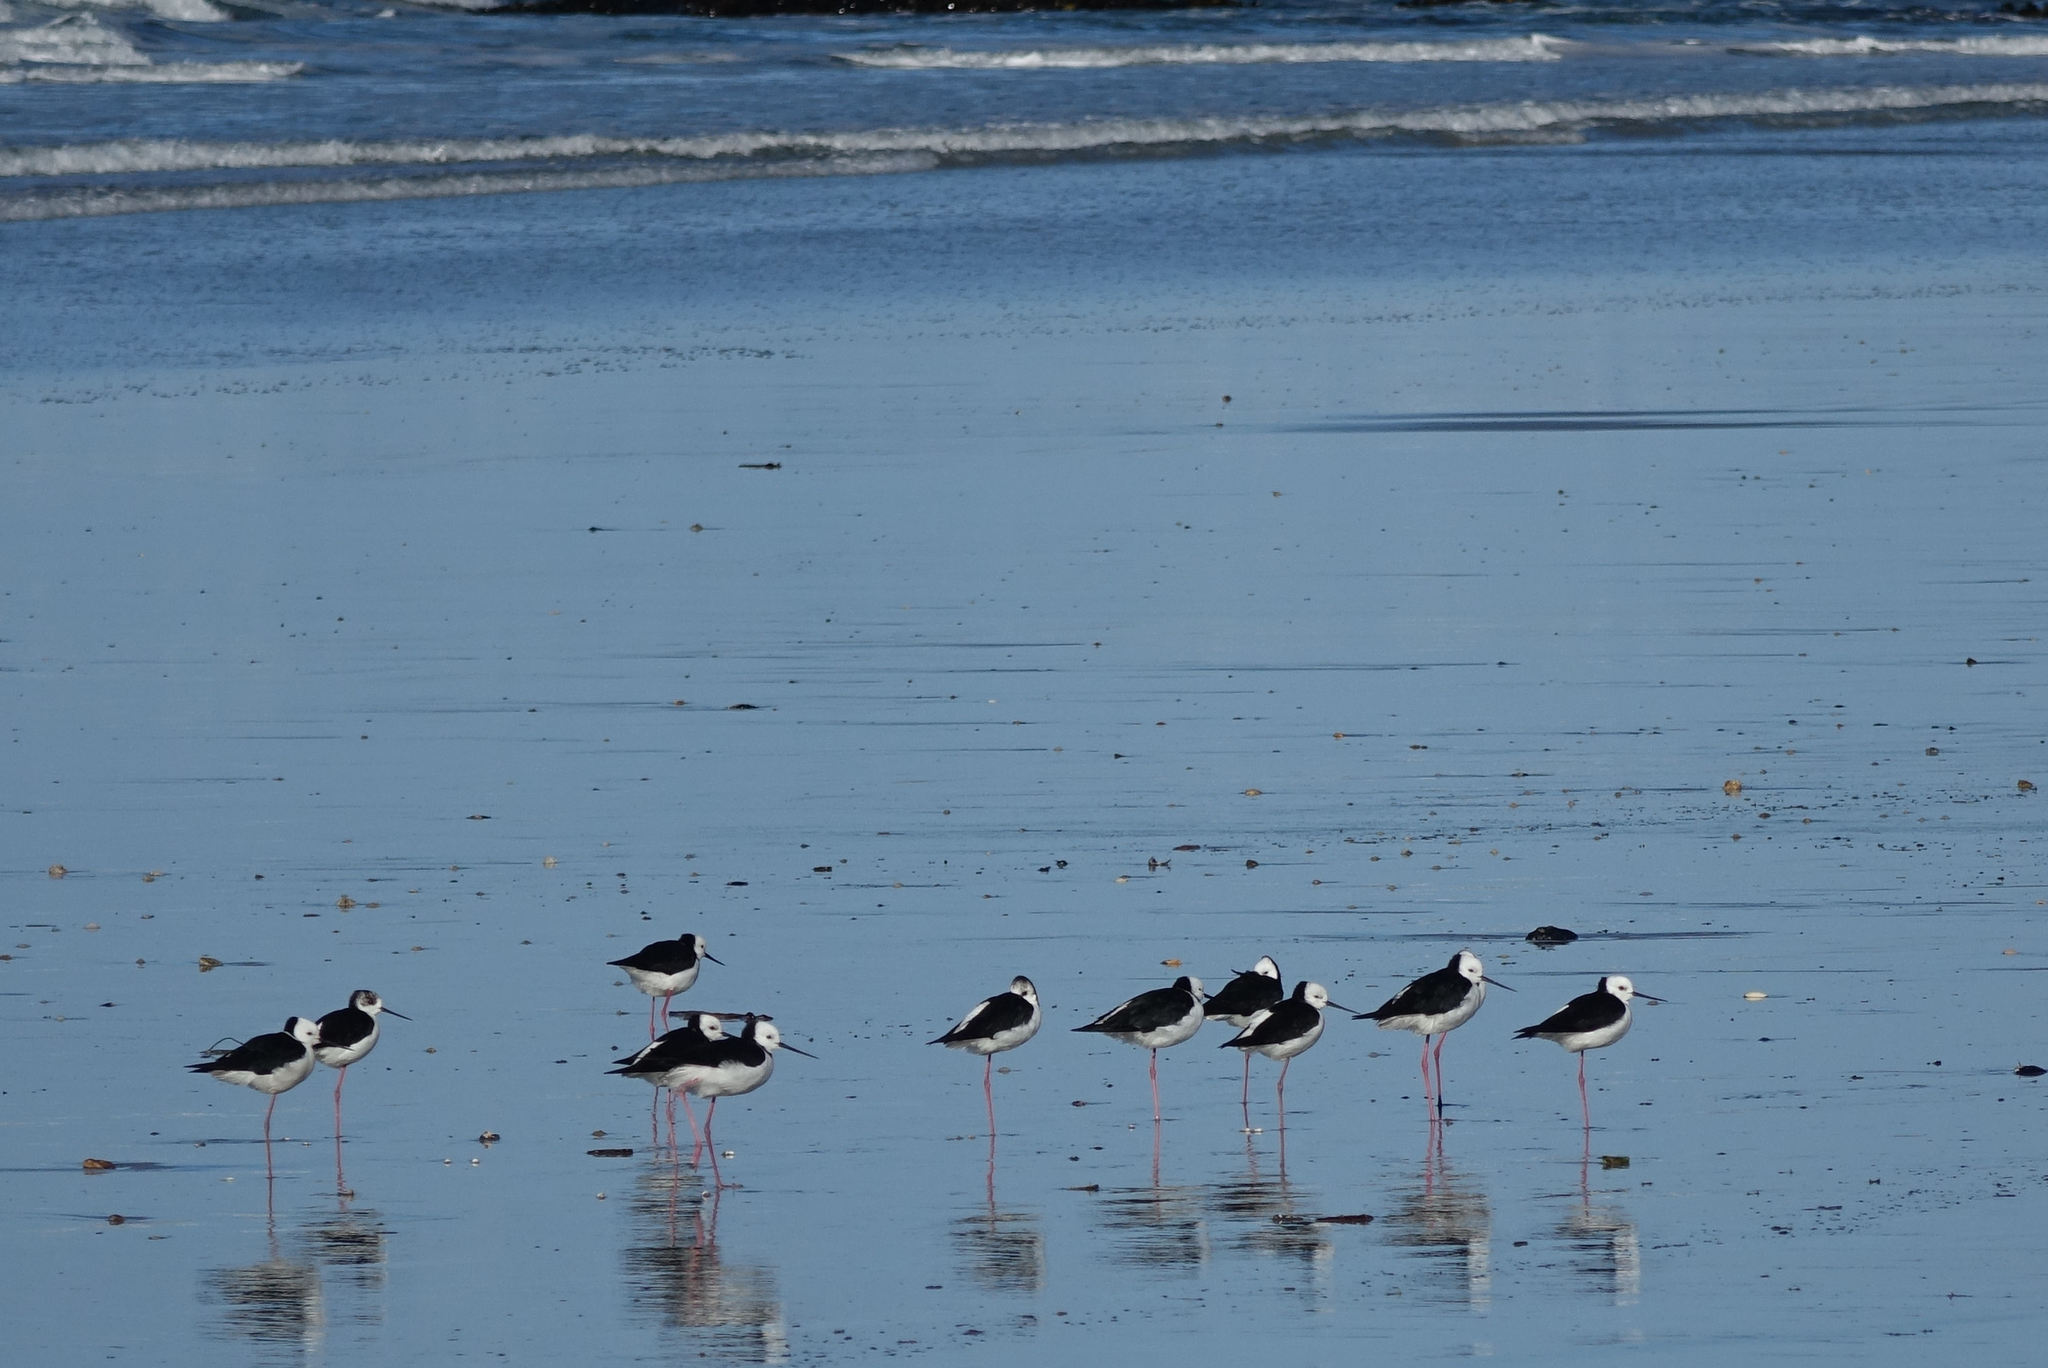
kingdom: Animalia
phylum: Chordata
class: Aves
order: Charadriiformes
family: Recurvirostridae
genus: Himantopus
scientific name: Himantopus leucocephalus
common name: White-headed stilt
